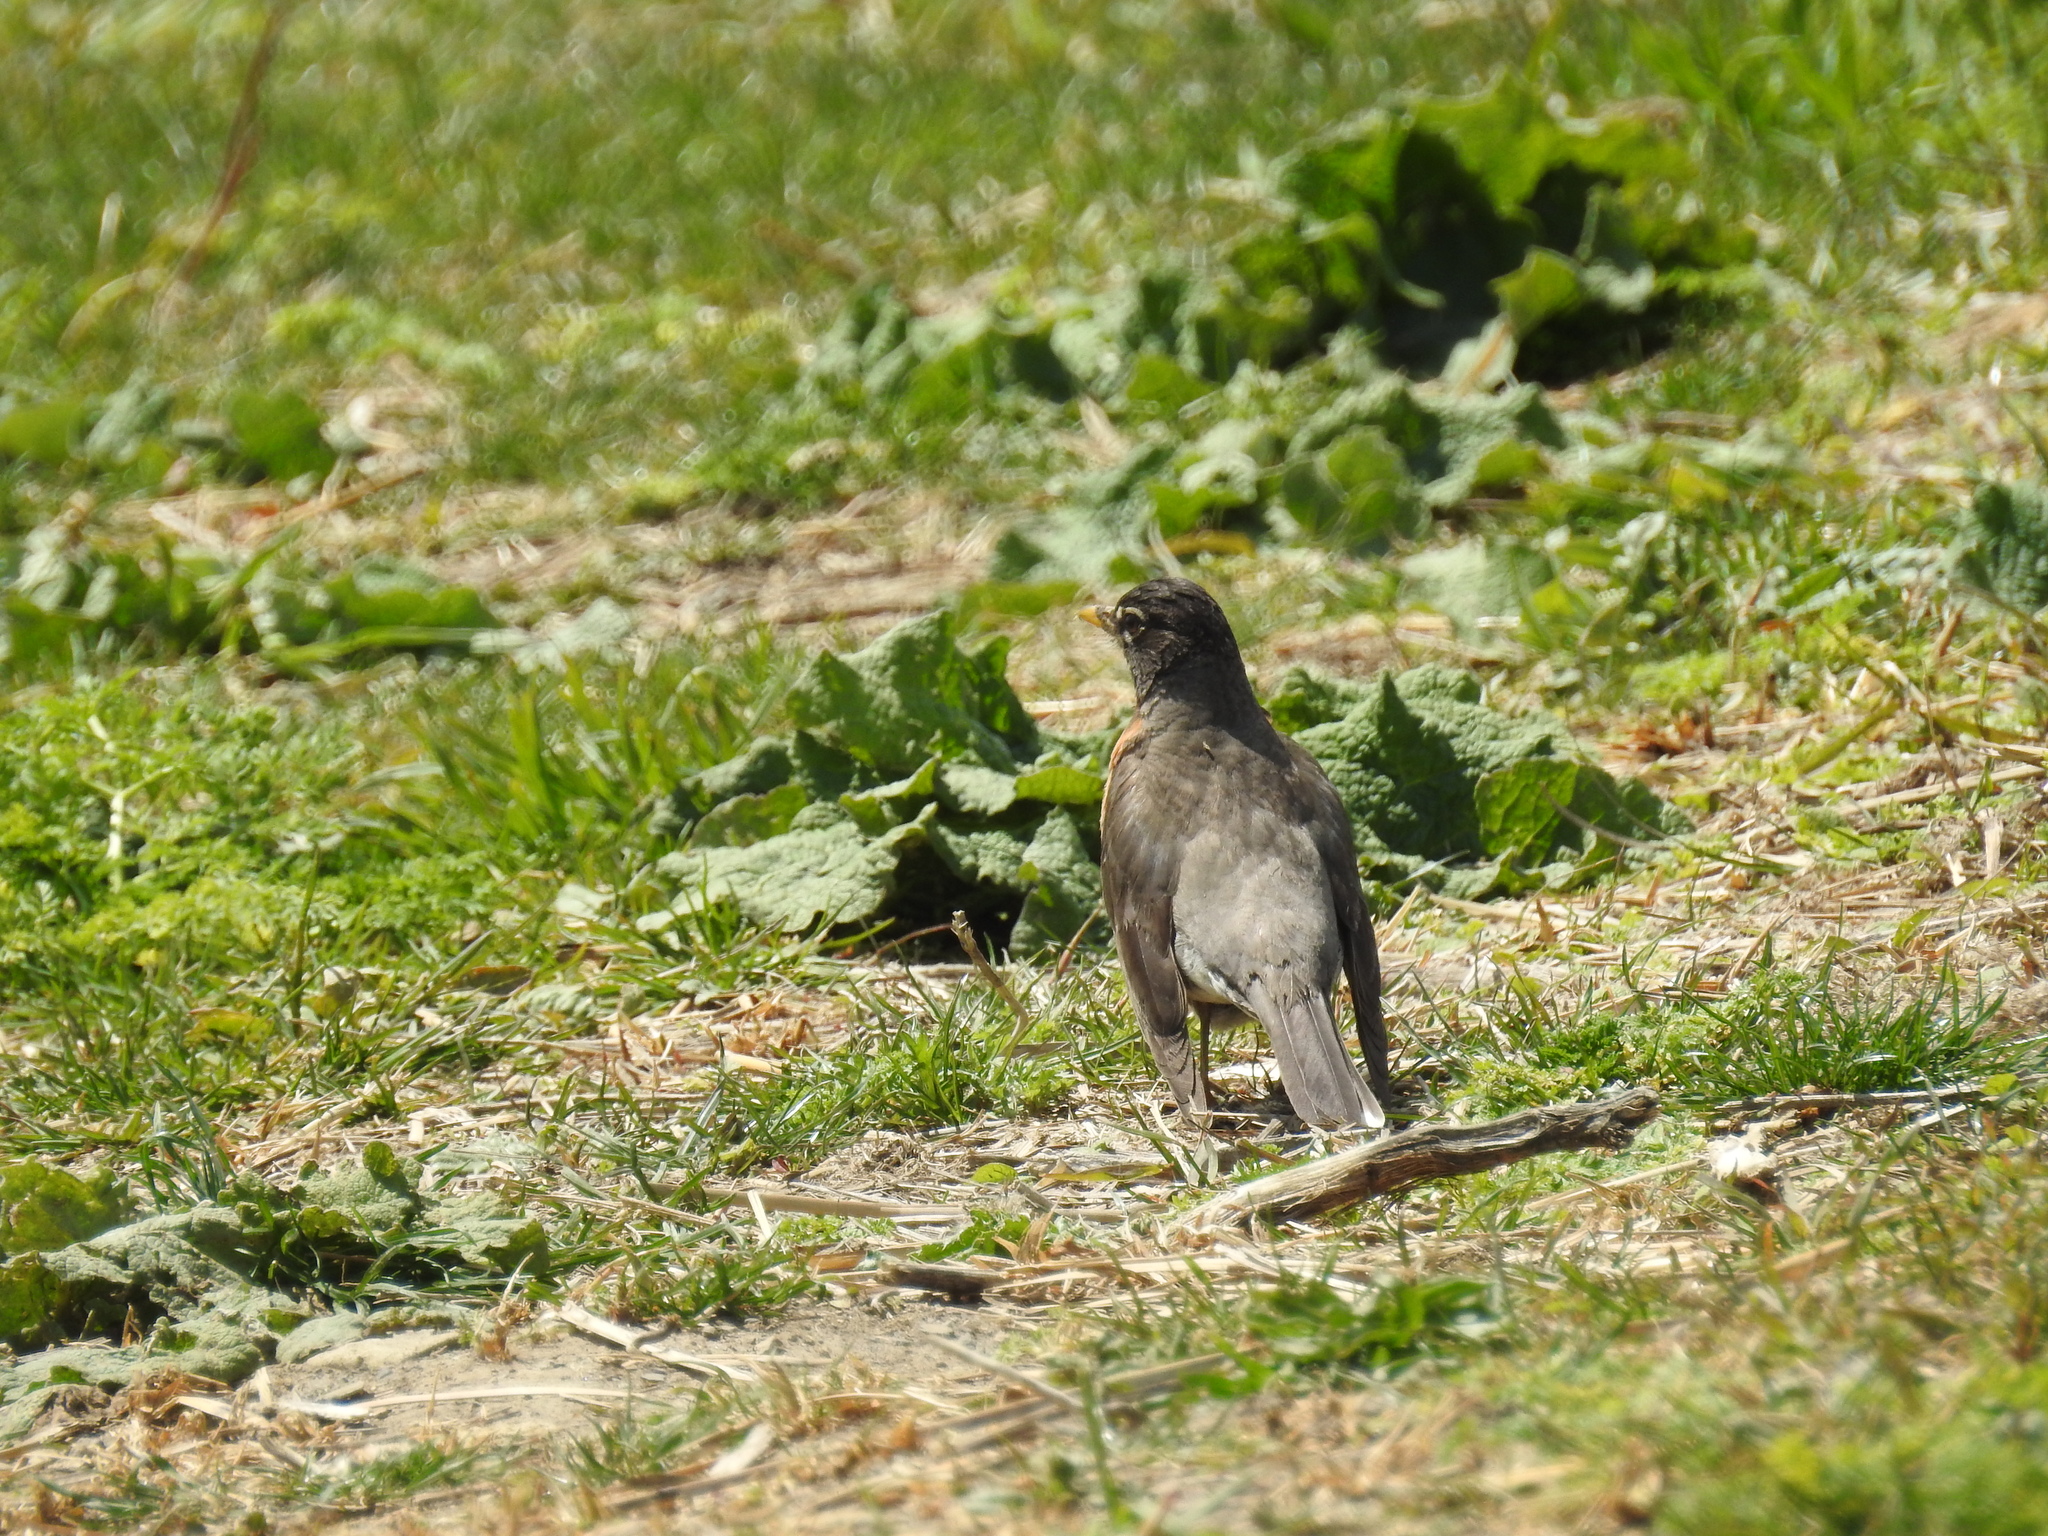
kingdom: Animalia
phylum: Chordata
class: Aves
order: Passeriformes
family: Turdidae
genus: Turdus
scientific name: Turdus migratorius
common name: American robin
